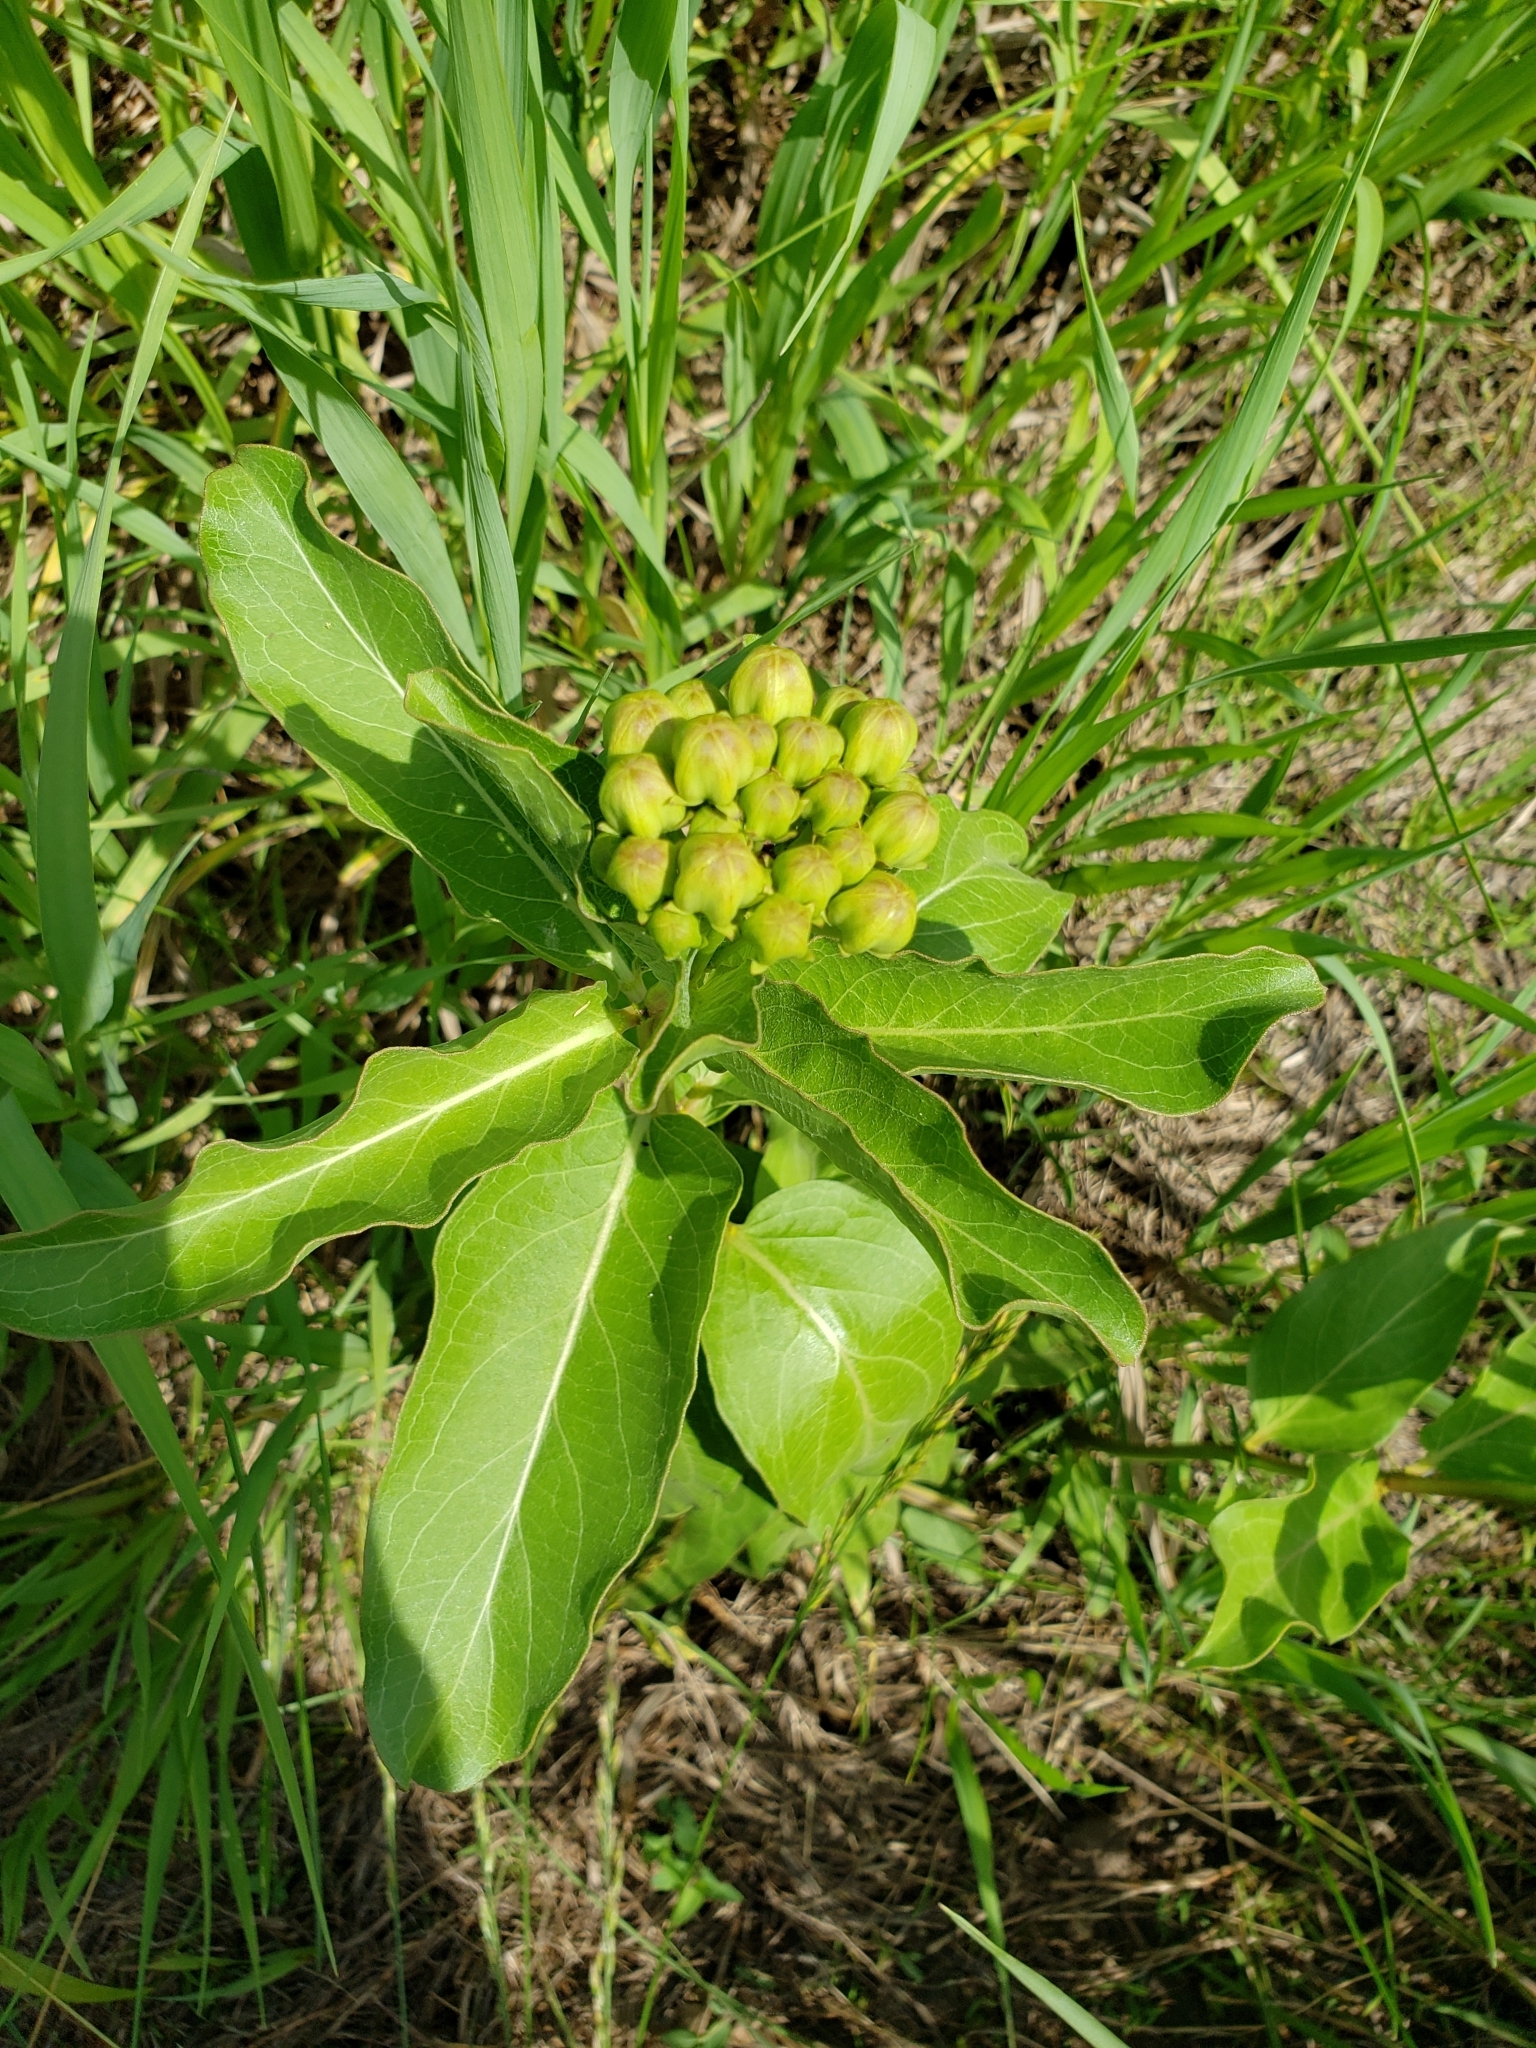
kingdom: Plantae
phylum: Tracheophyta
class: Magnoliopsida
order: Gentianales
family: Apocynaceae
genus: Asclepias
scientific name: Asclepias viridis
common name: Antelope-horns
